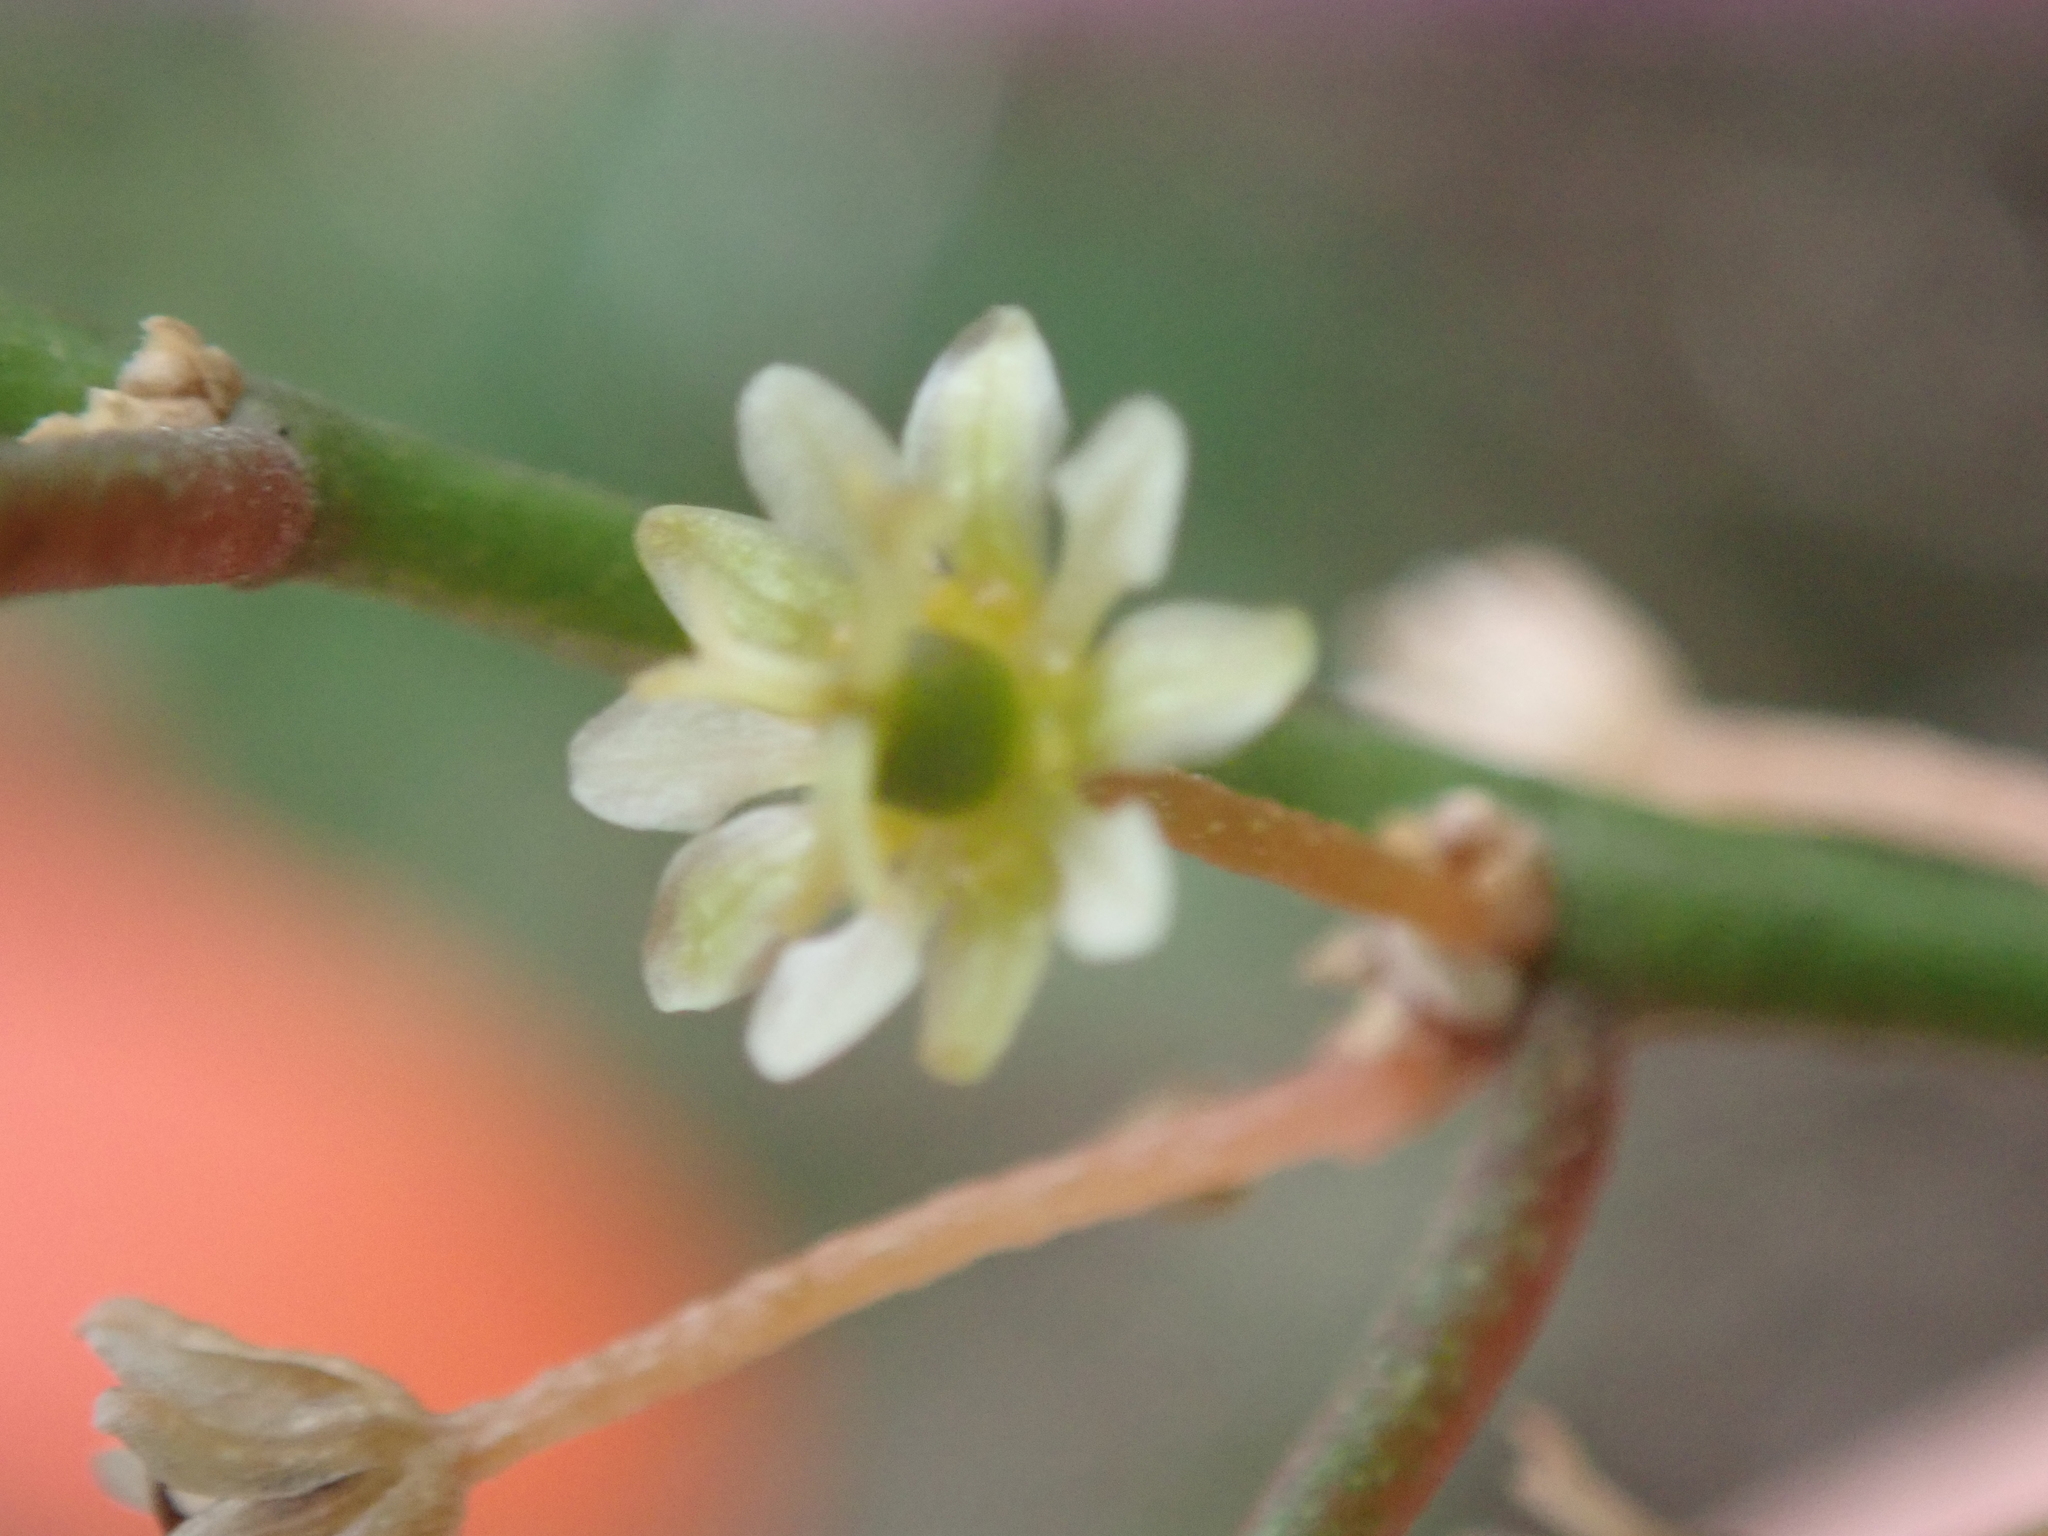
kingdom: Plantae
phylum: Tracheophyta
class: Magnoliopsida
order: Malpighiales
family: Peraceae
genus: Clutia
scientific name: Clutia pulchella
